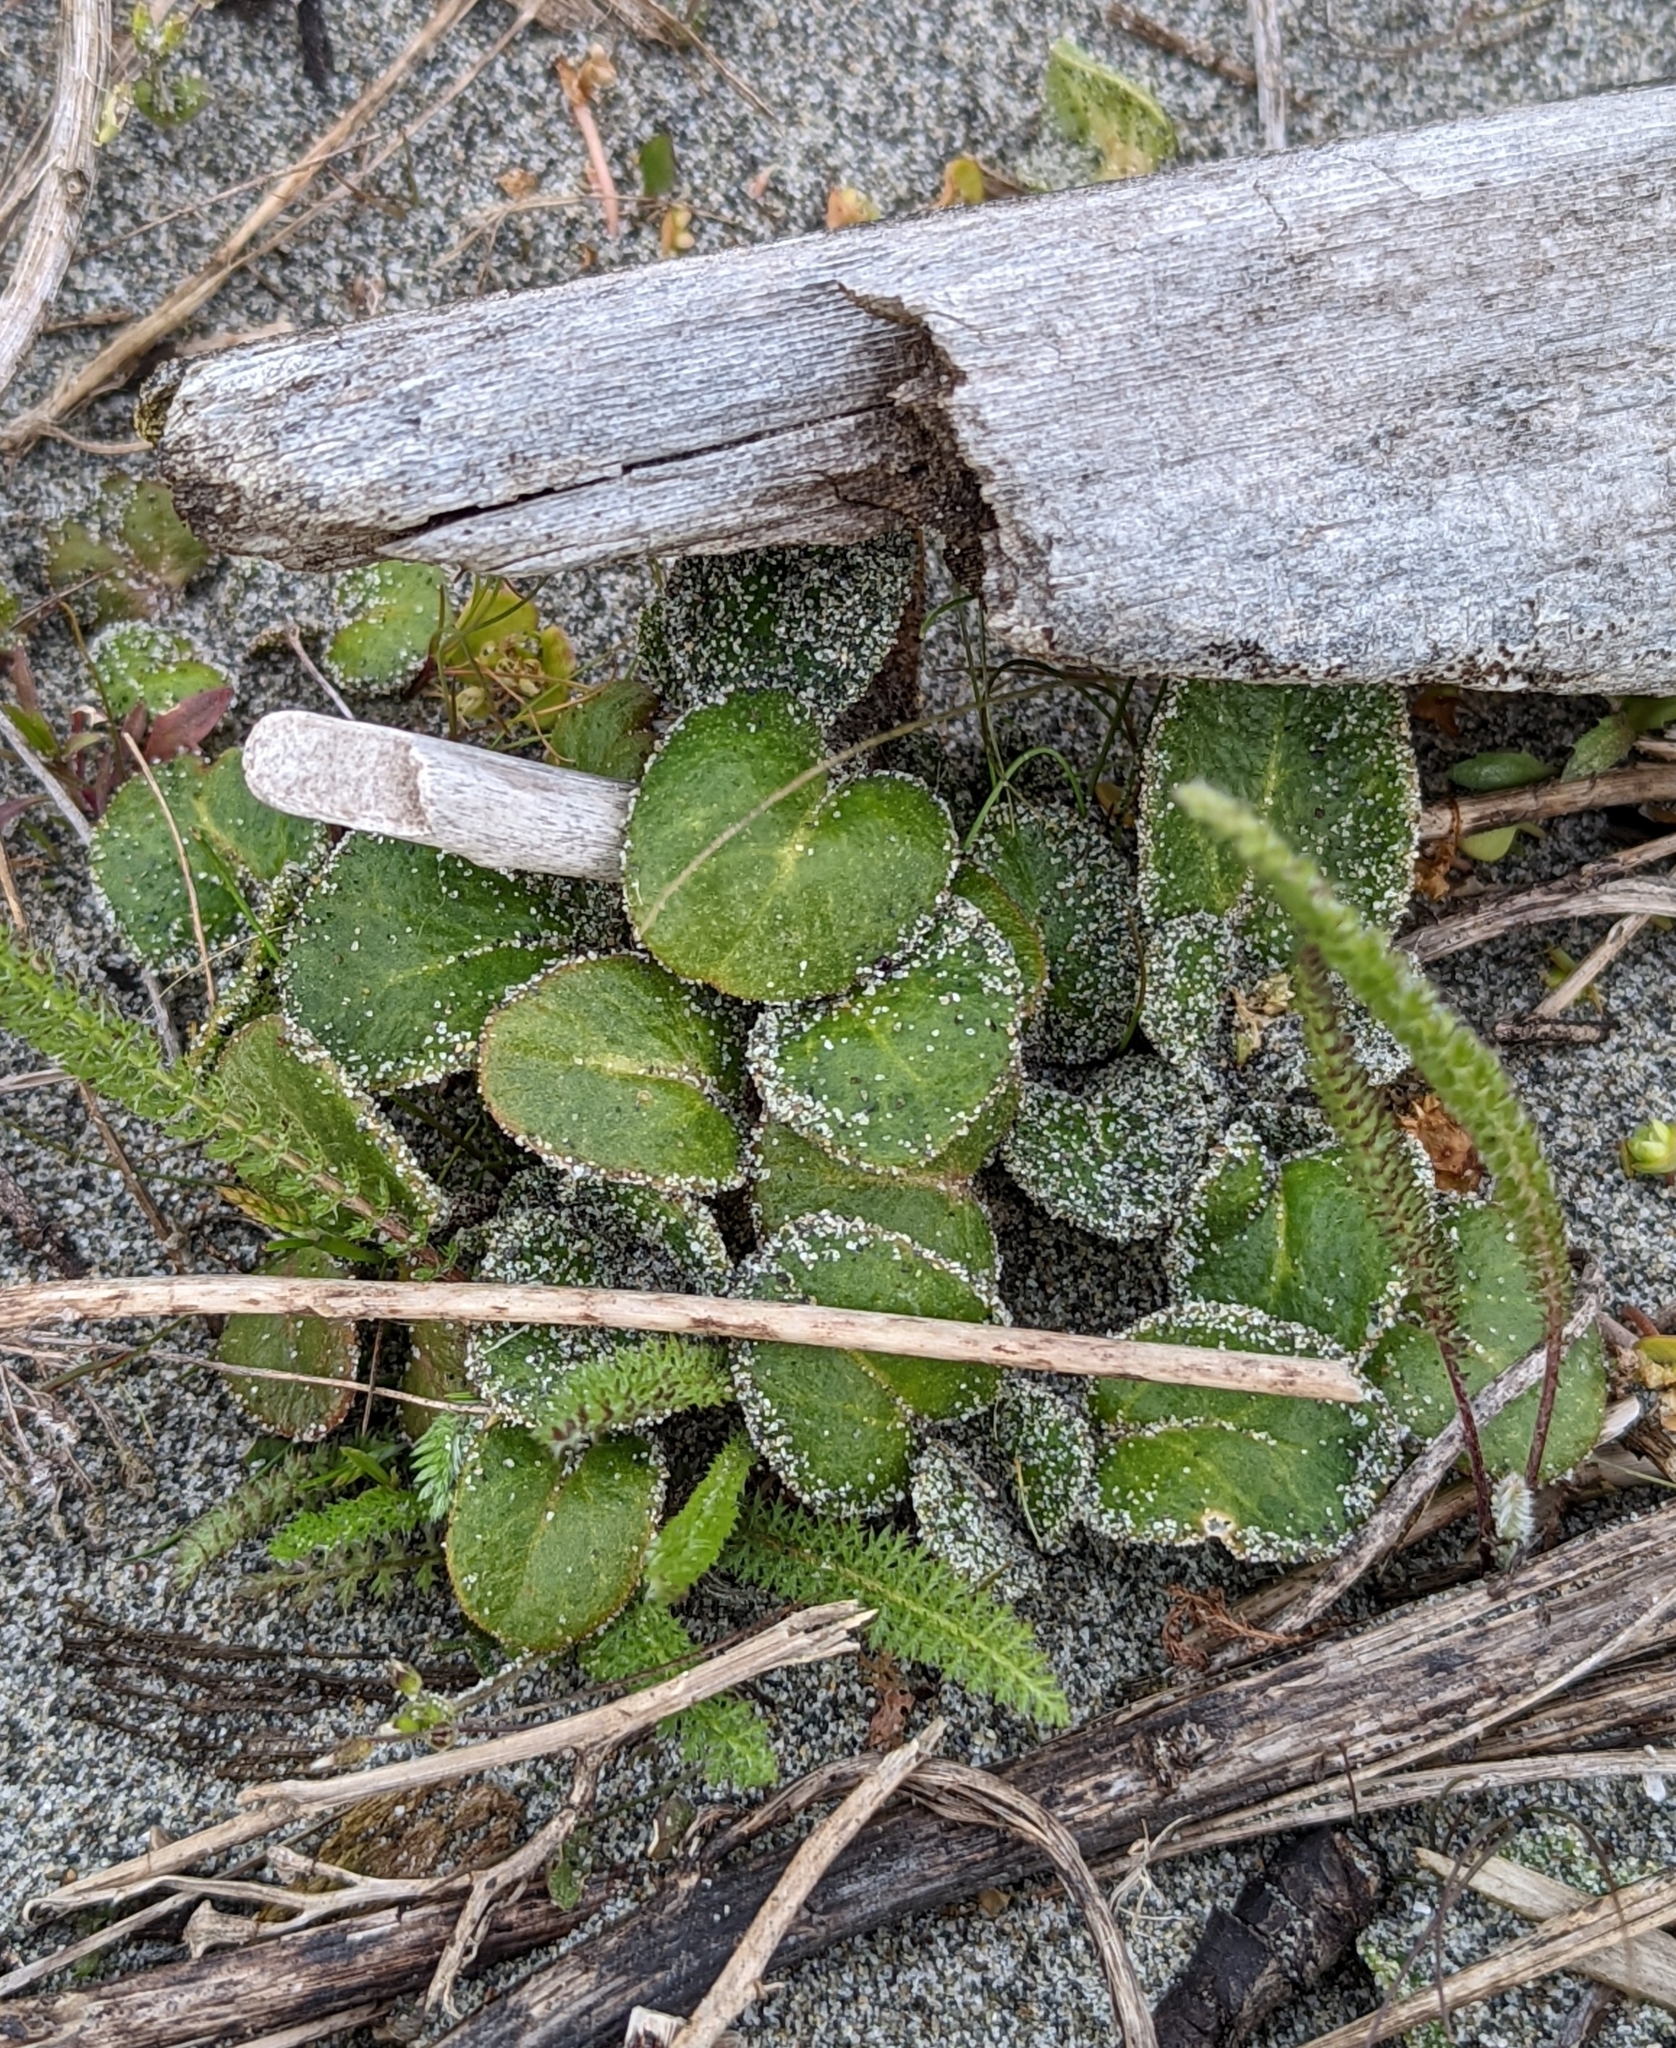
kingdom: Plantae
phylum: Tracheophyta
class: Magnoliopsida
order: Caryophyllales
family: Nyctaginaceae
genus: Abronia
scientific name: Abronia latifolia
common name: Yellow sand-verbena
